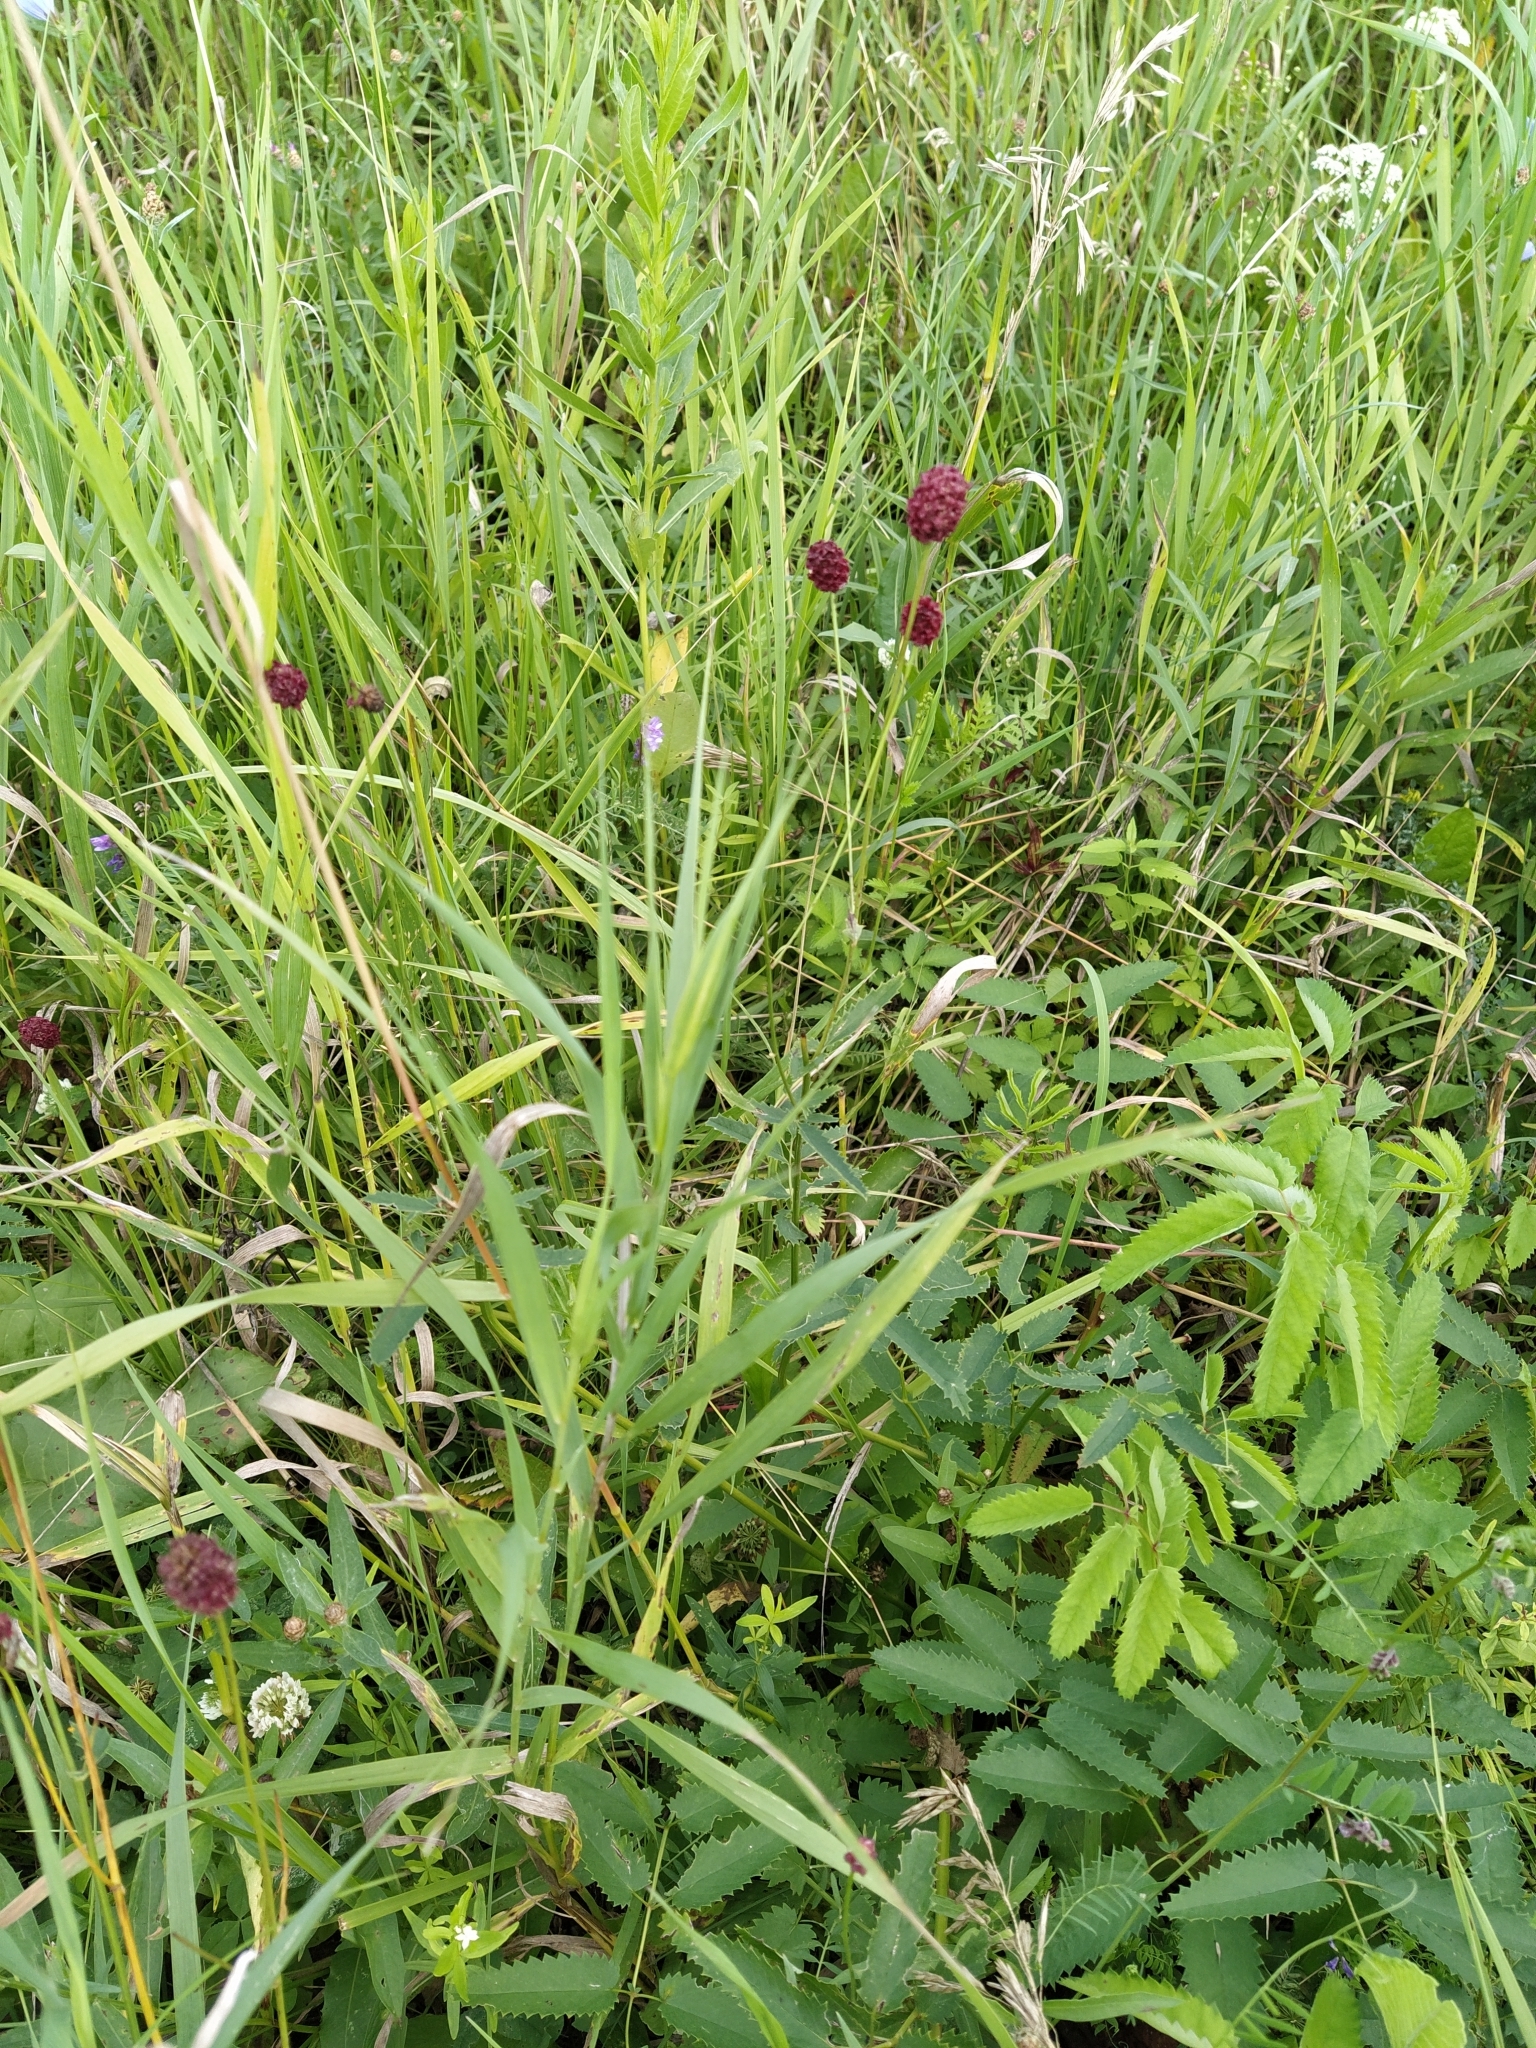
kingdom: Plantae
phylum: Tracheophyta
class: Magnoliopsida
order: Rosales
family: Rosaceae
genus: Sanguisorba
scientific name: Sanguisorba officinalis
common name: Great burnet
